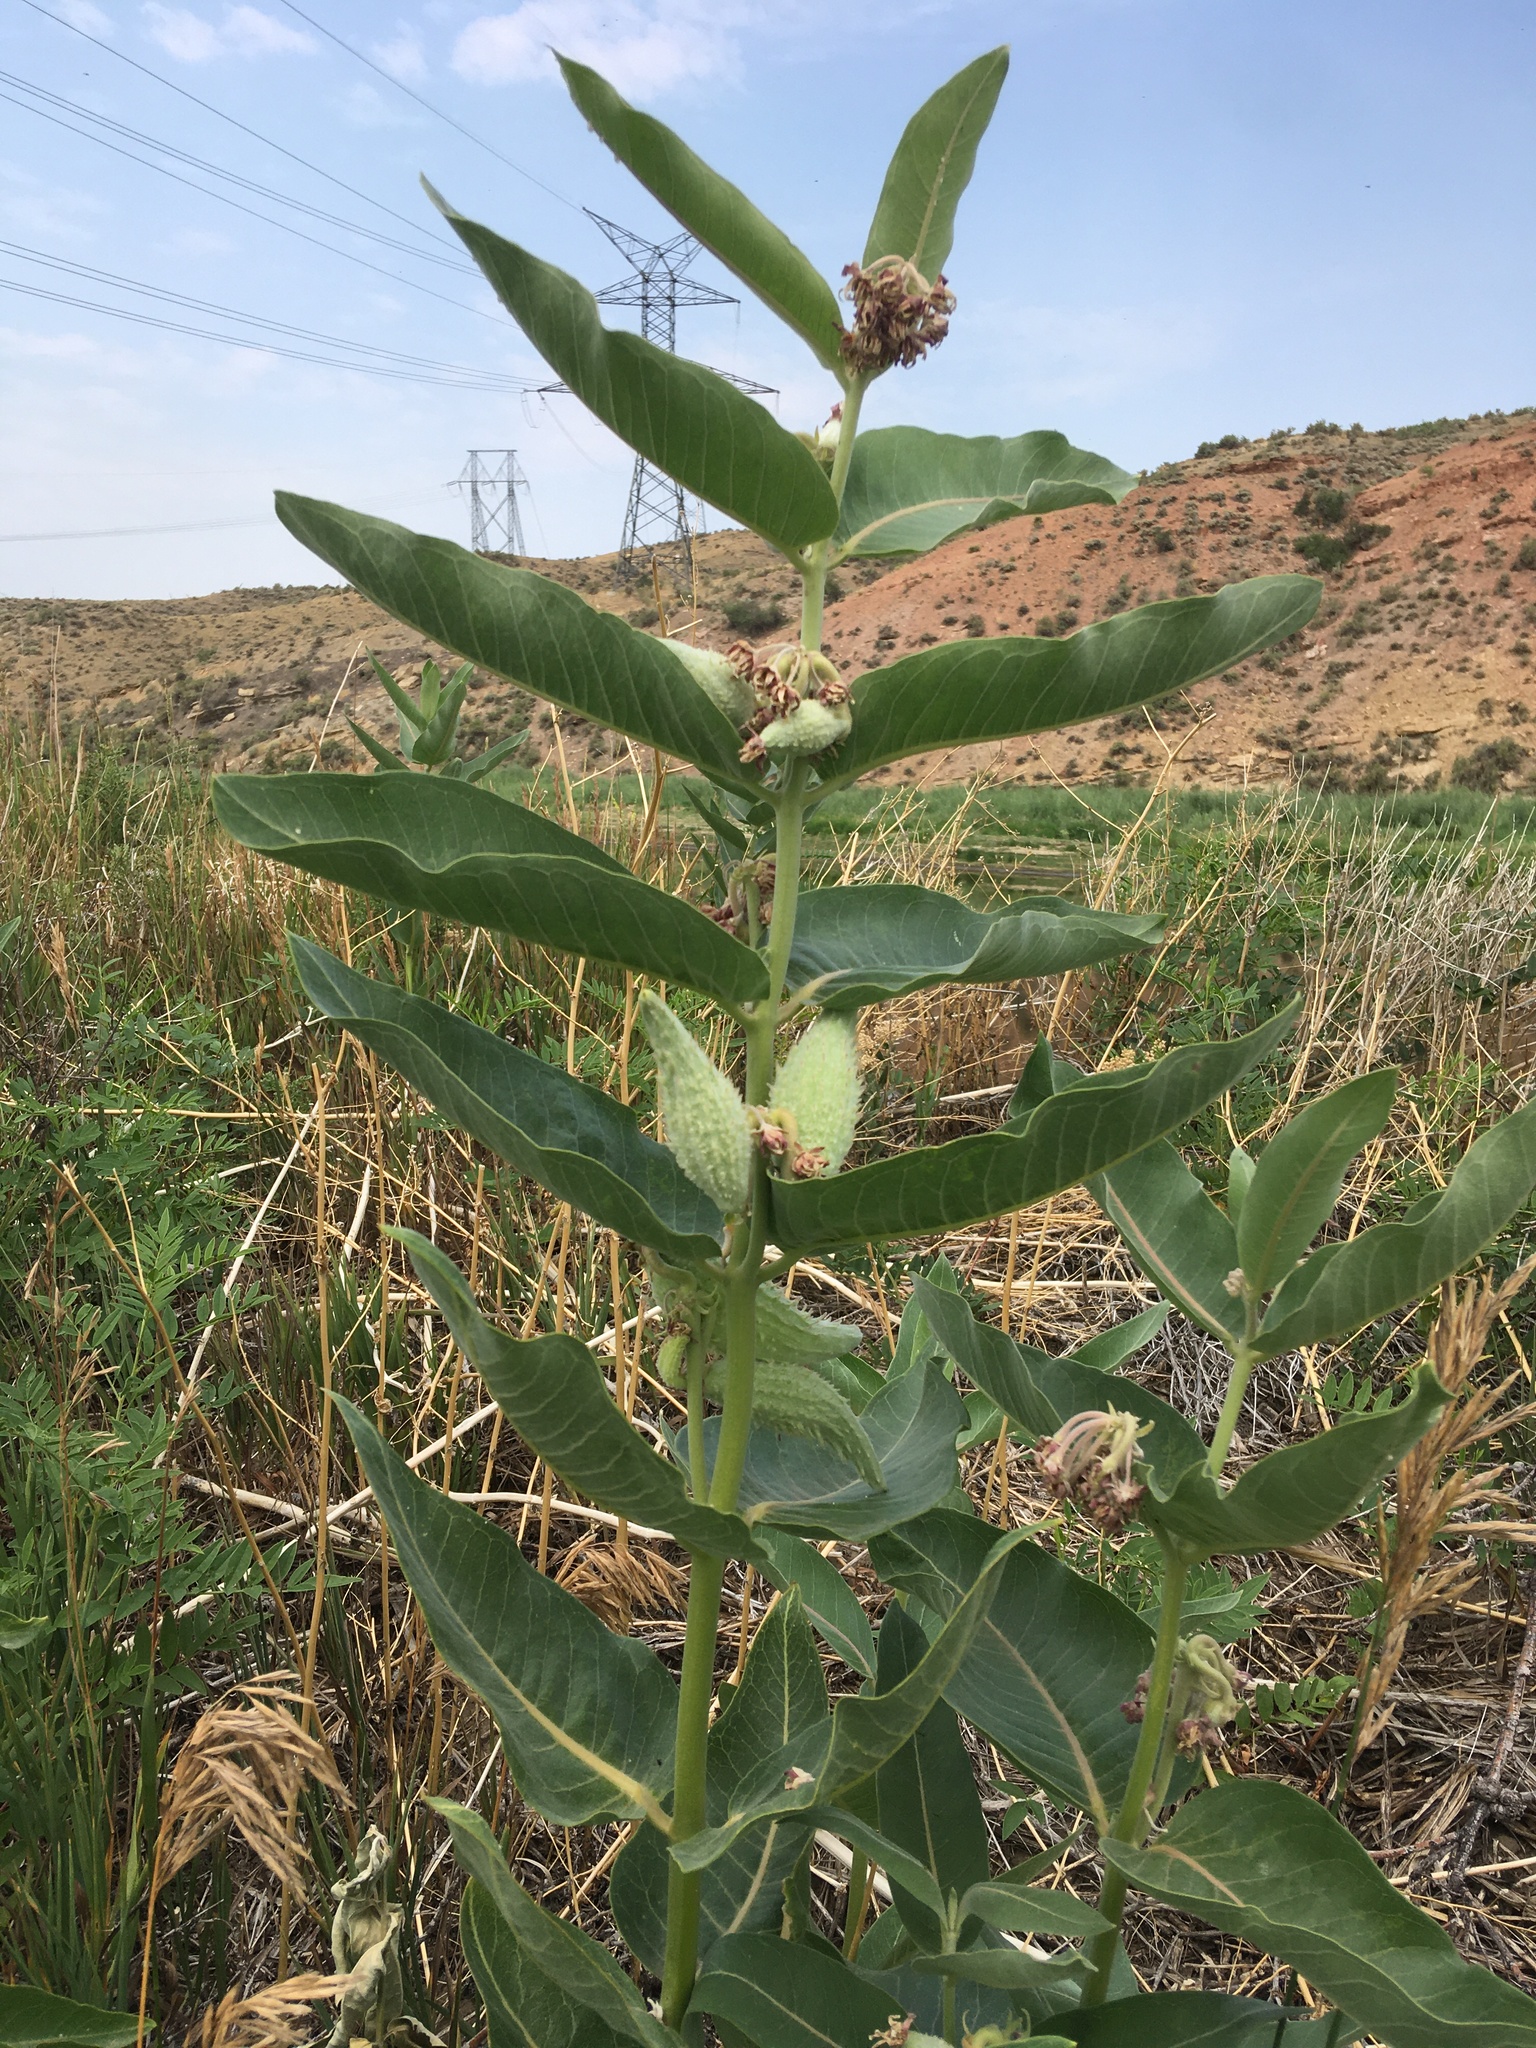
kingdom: Plantae
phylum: Tracheophyta
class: Magnoliopsida
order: Gentianales
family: Apocynaceae
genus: Asclepias
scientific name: Asclepias speciosa
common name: Showy milkweed
